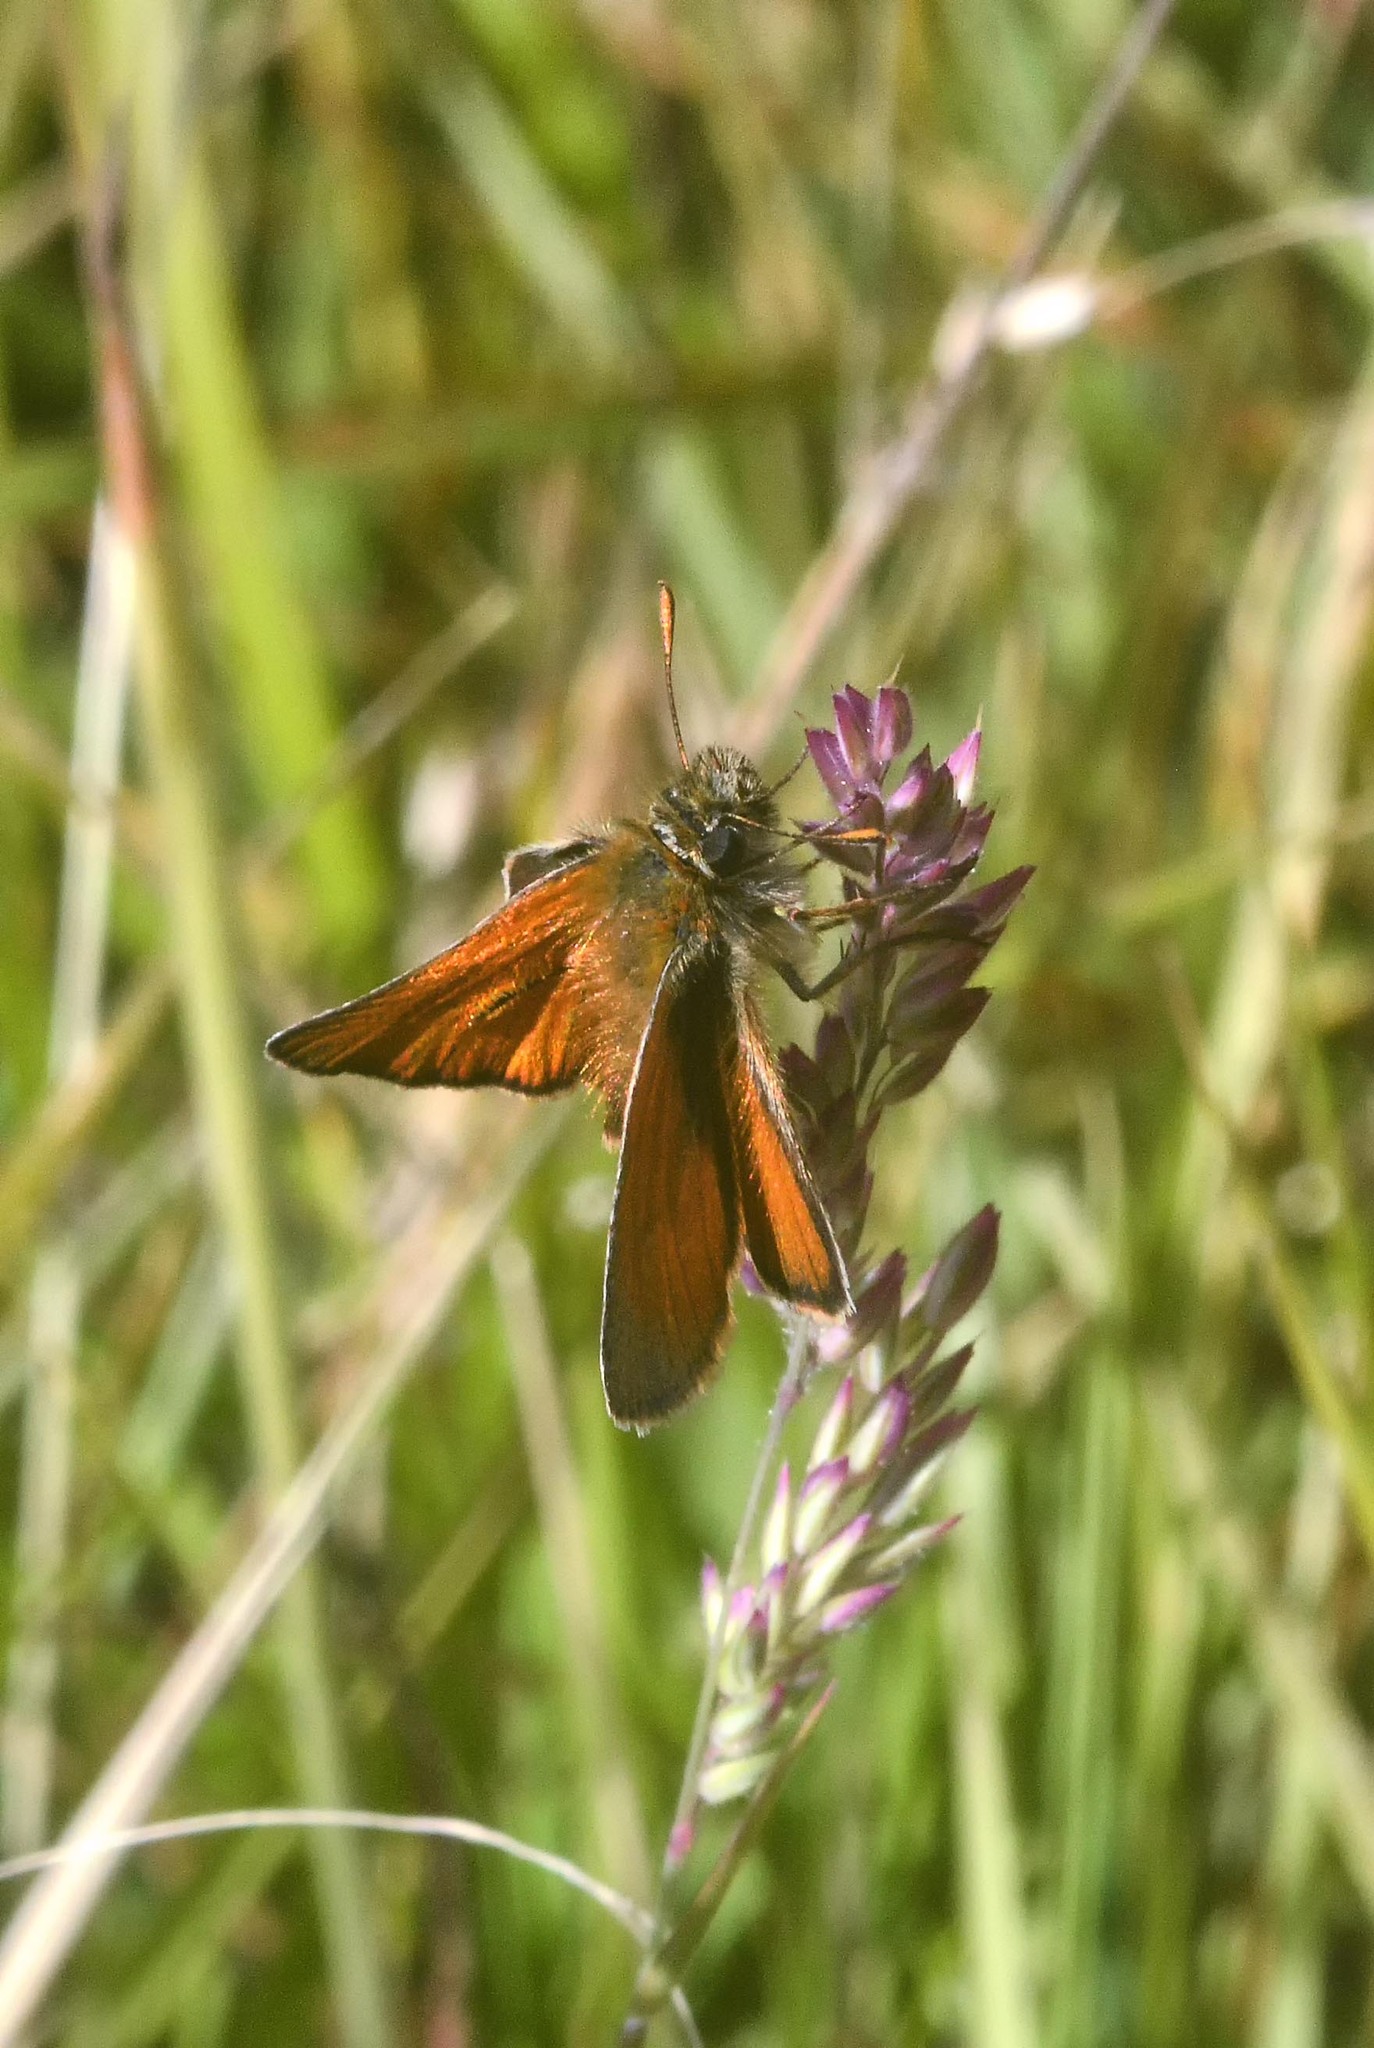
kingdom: Animalia
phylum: Arthropoda
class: Insecta
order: Lepidoptera
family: Hesperiidae
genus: Thymelicus
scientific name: Thymelicus sylvestris
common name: Small skipper
